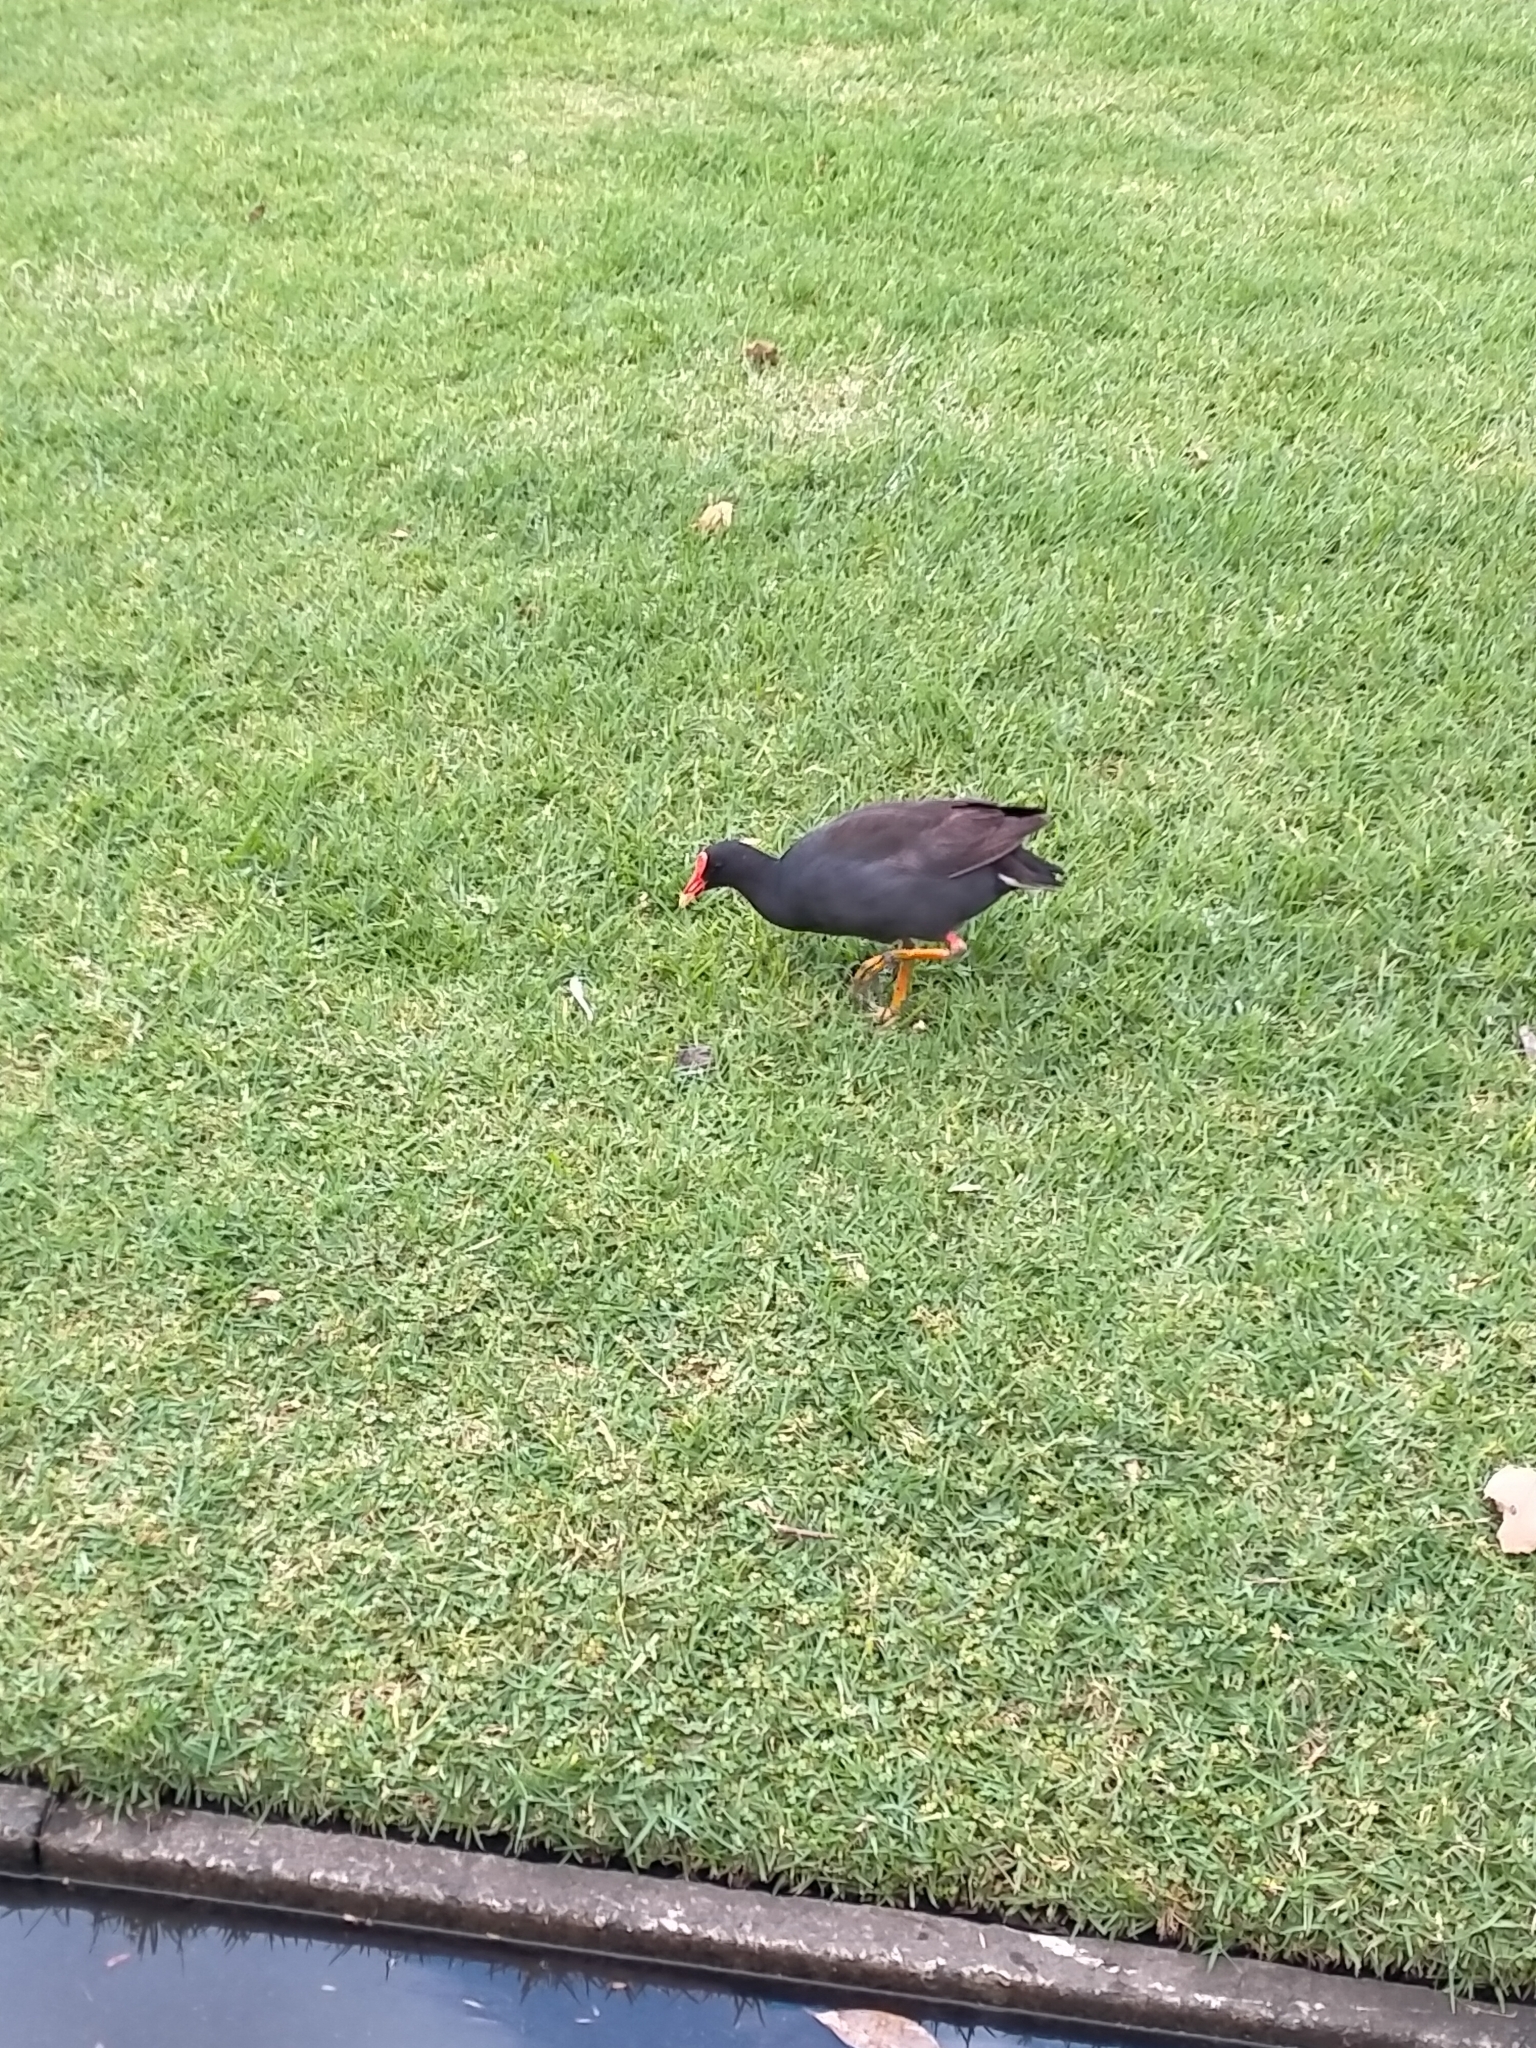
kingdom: Animalia
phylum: Chordata
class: Aves
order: Gruiformes
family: Rallidae
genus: Gallinula
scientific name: Gallinula tenebrosa
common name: Dusky moorhen
